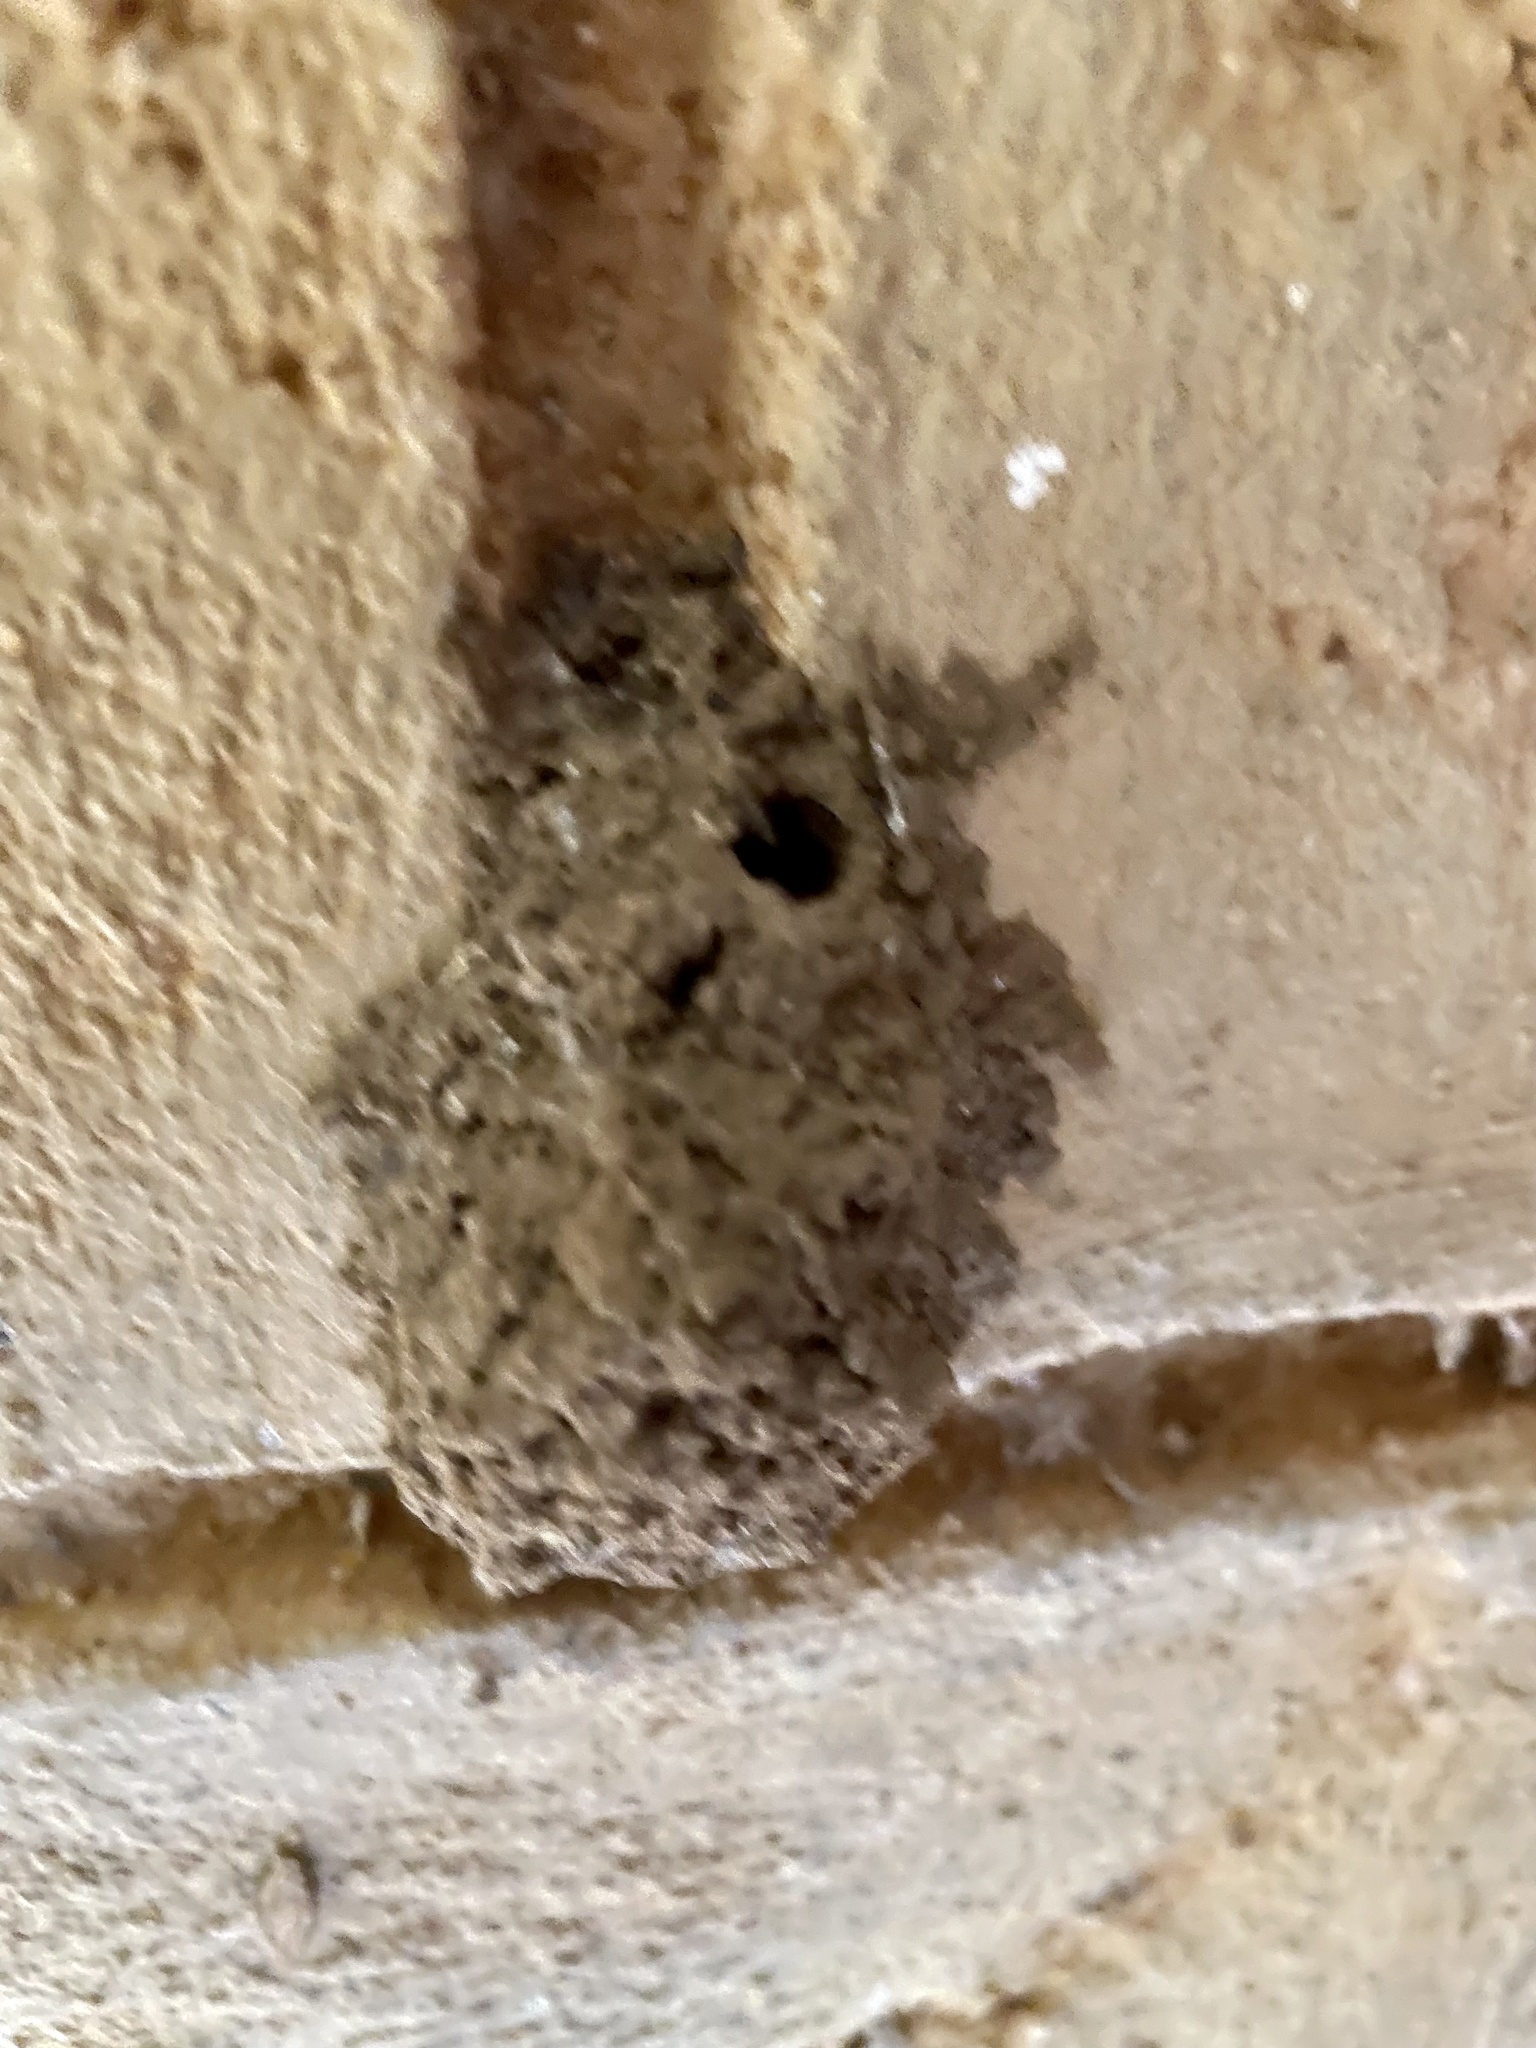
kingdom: Animalia
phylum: Arthropoda
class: Insecta
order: Hymenoptera
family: Eumenidae
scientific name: Eumenidae
